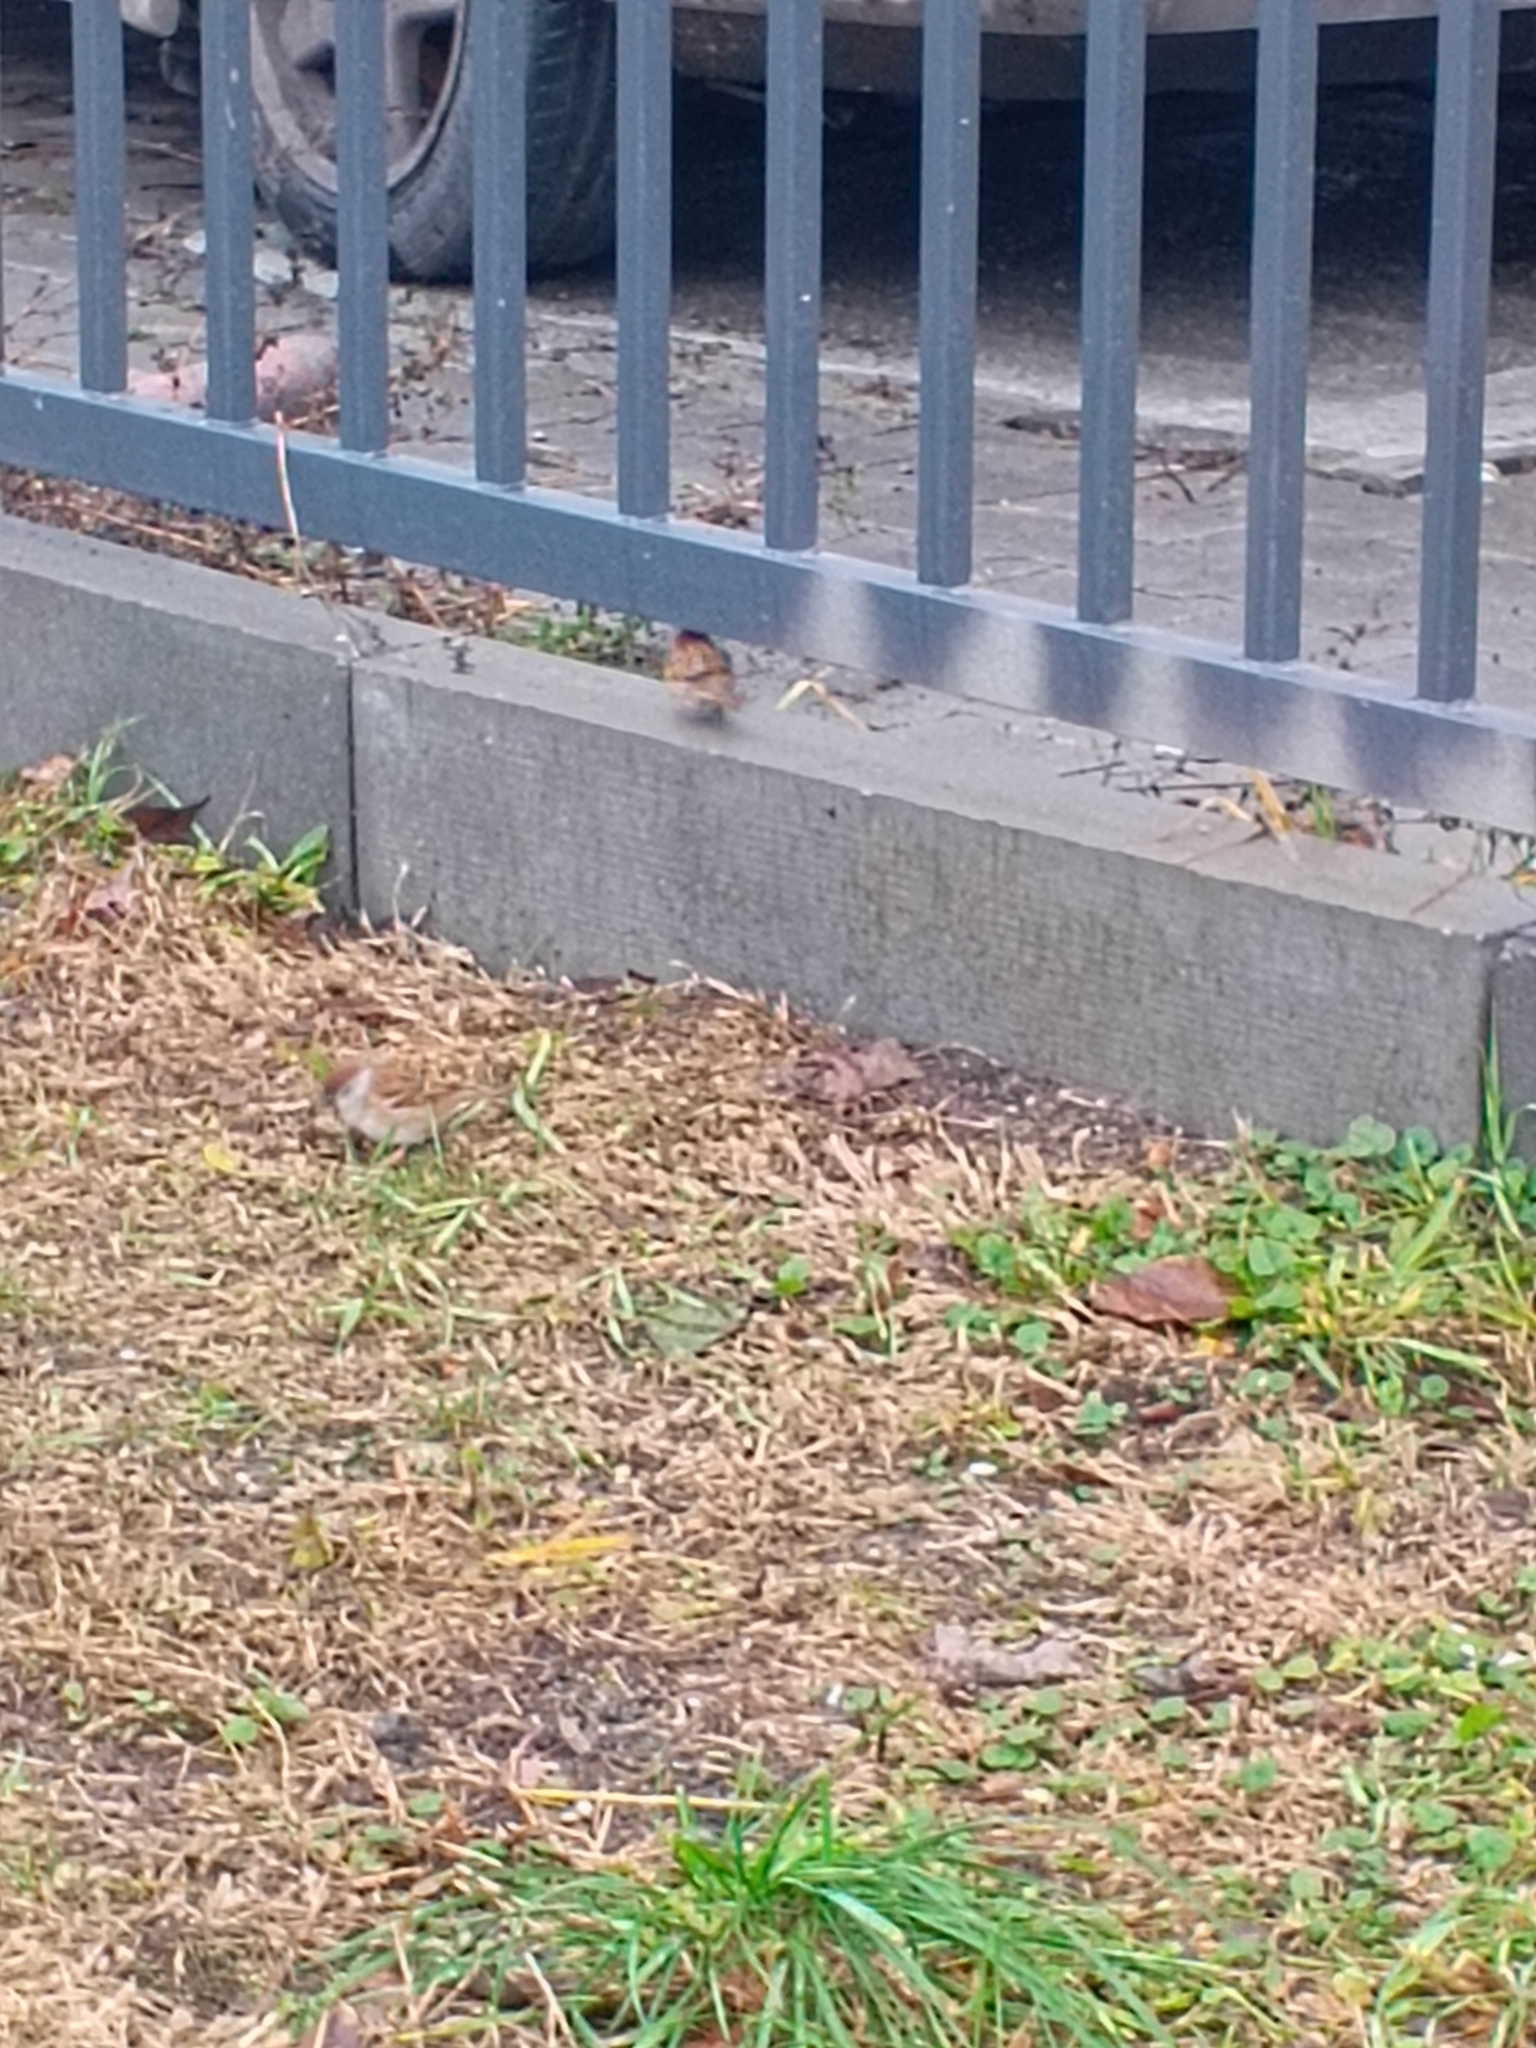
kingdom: Animalia
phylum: Chordata
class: Aves
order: Passeriformes
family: Passeridae
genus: Passer
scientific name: Passer montanus
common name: Eurasian tree sparrow
